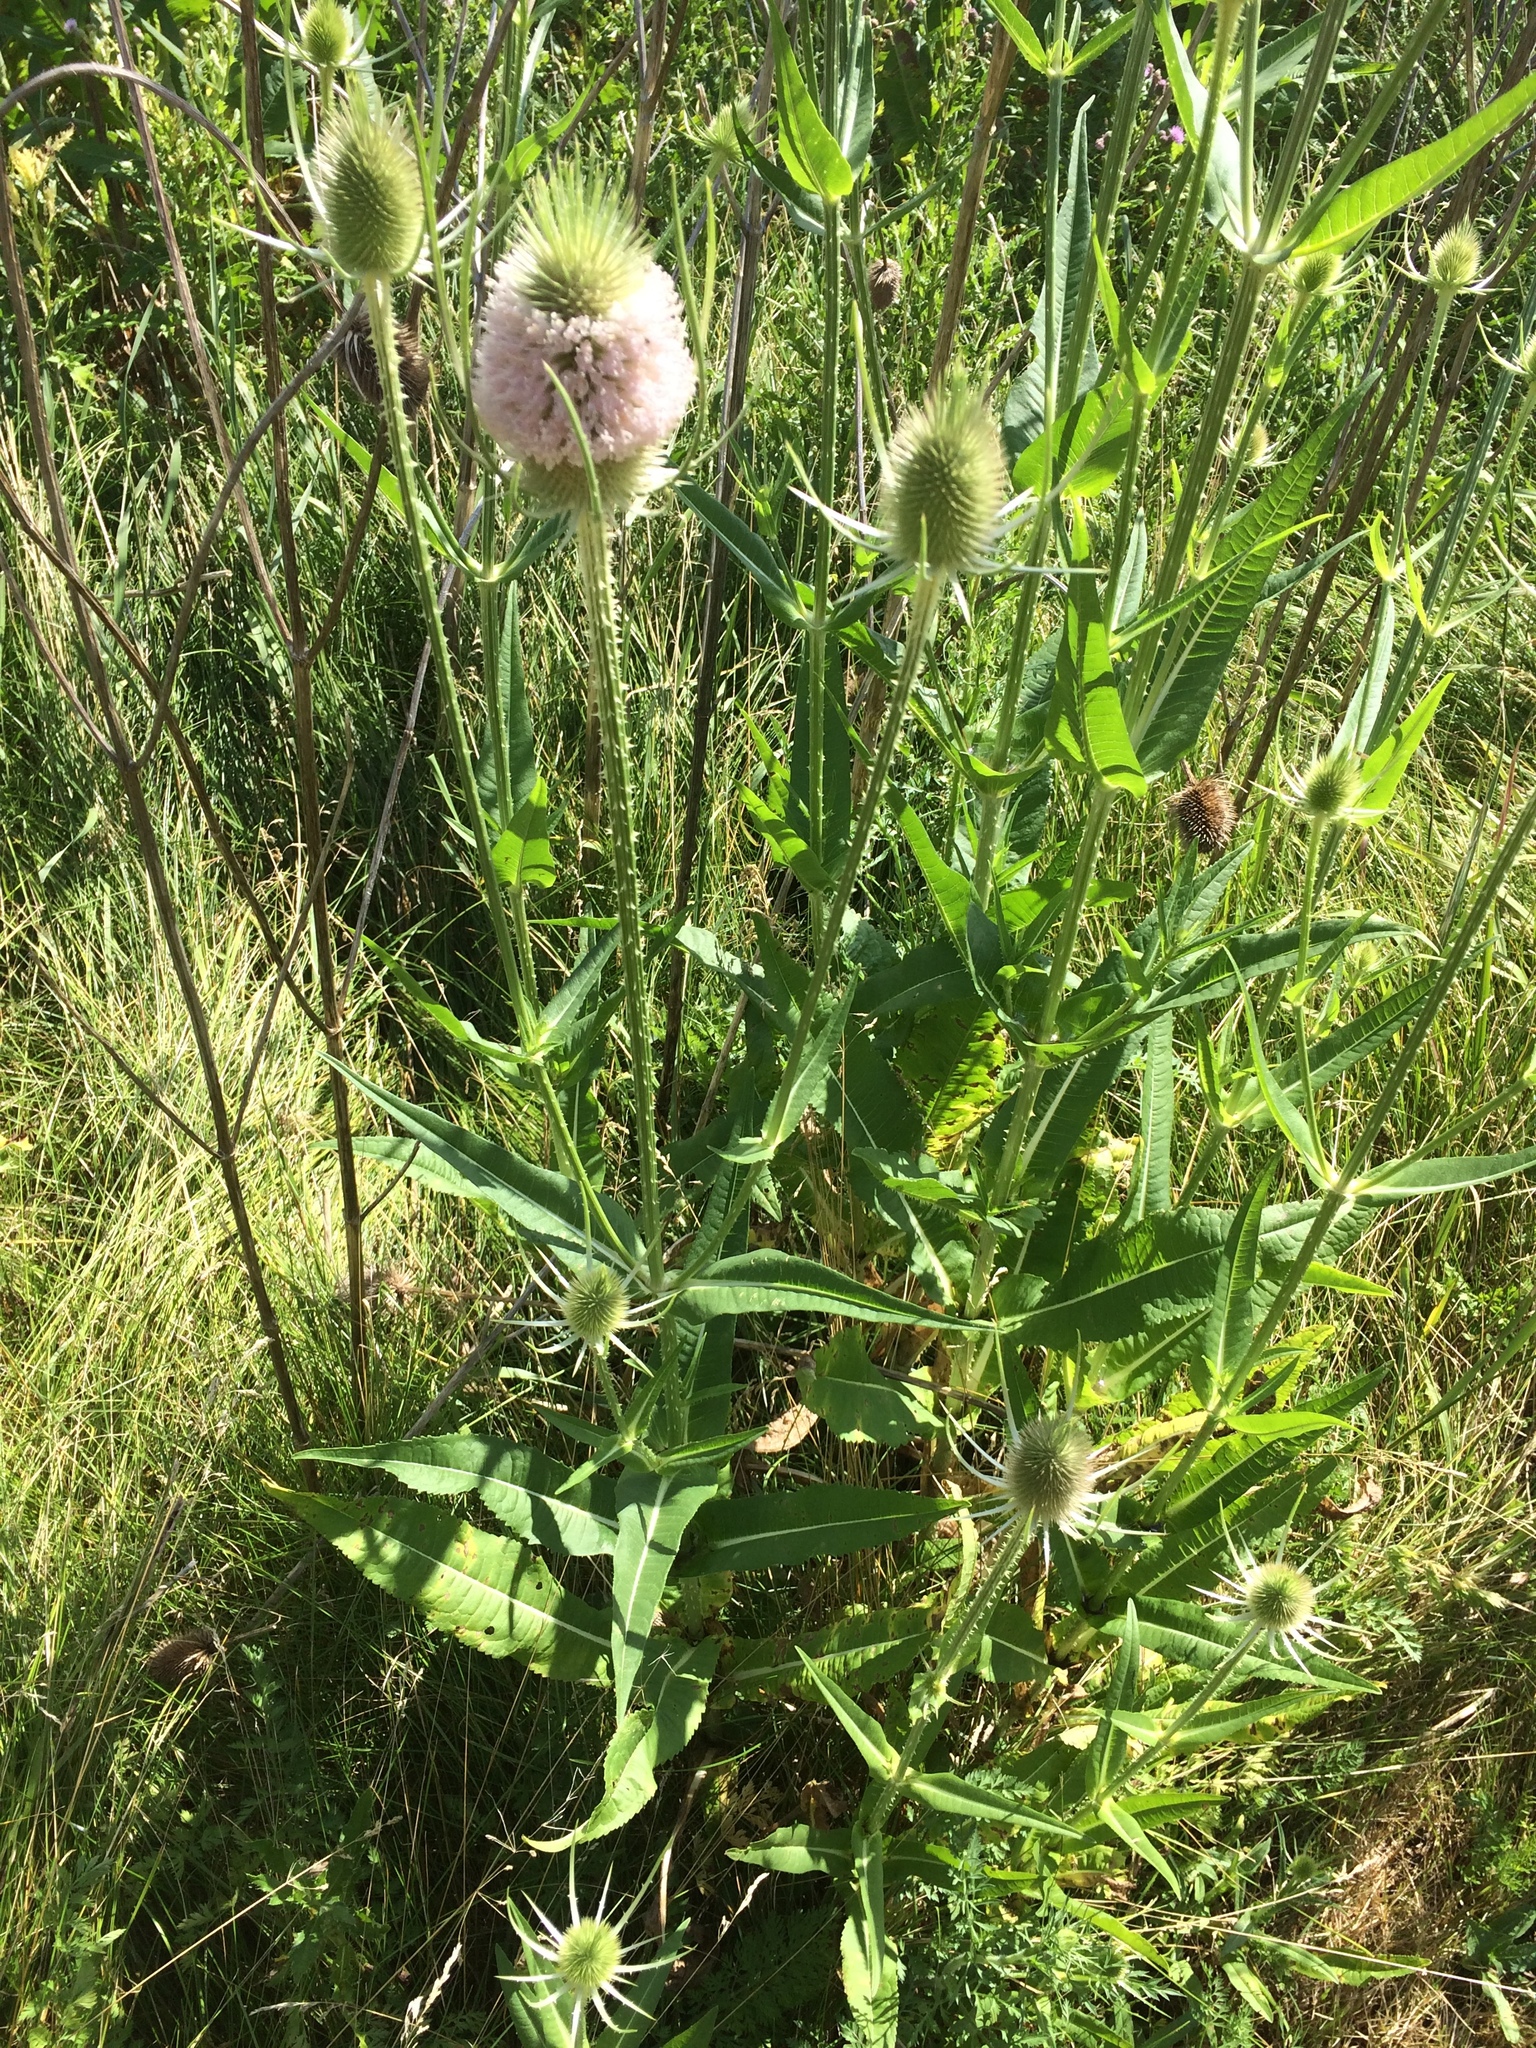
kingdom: Plantae
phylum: Tracheophyta
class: Magnoliopsida
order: Dipsacales
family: Caprifoliaceae
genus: Dipsacus
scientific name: Dipsacus fullonum
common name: Teasel
